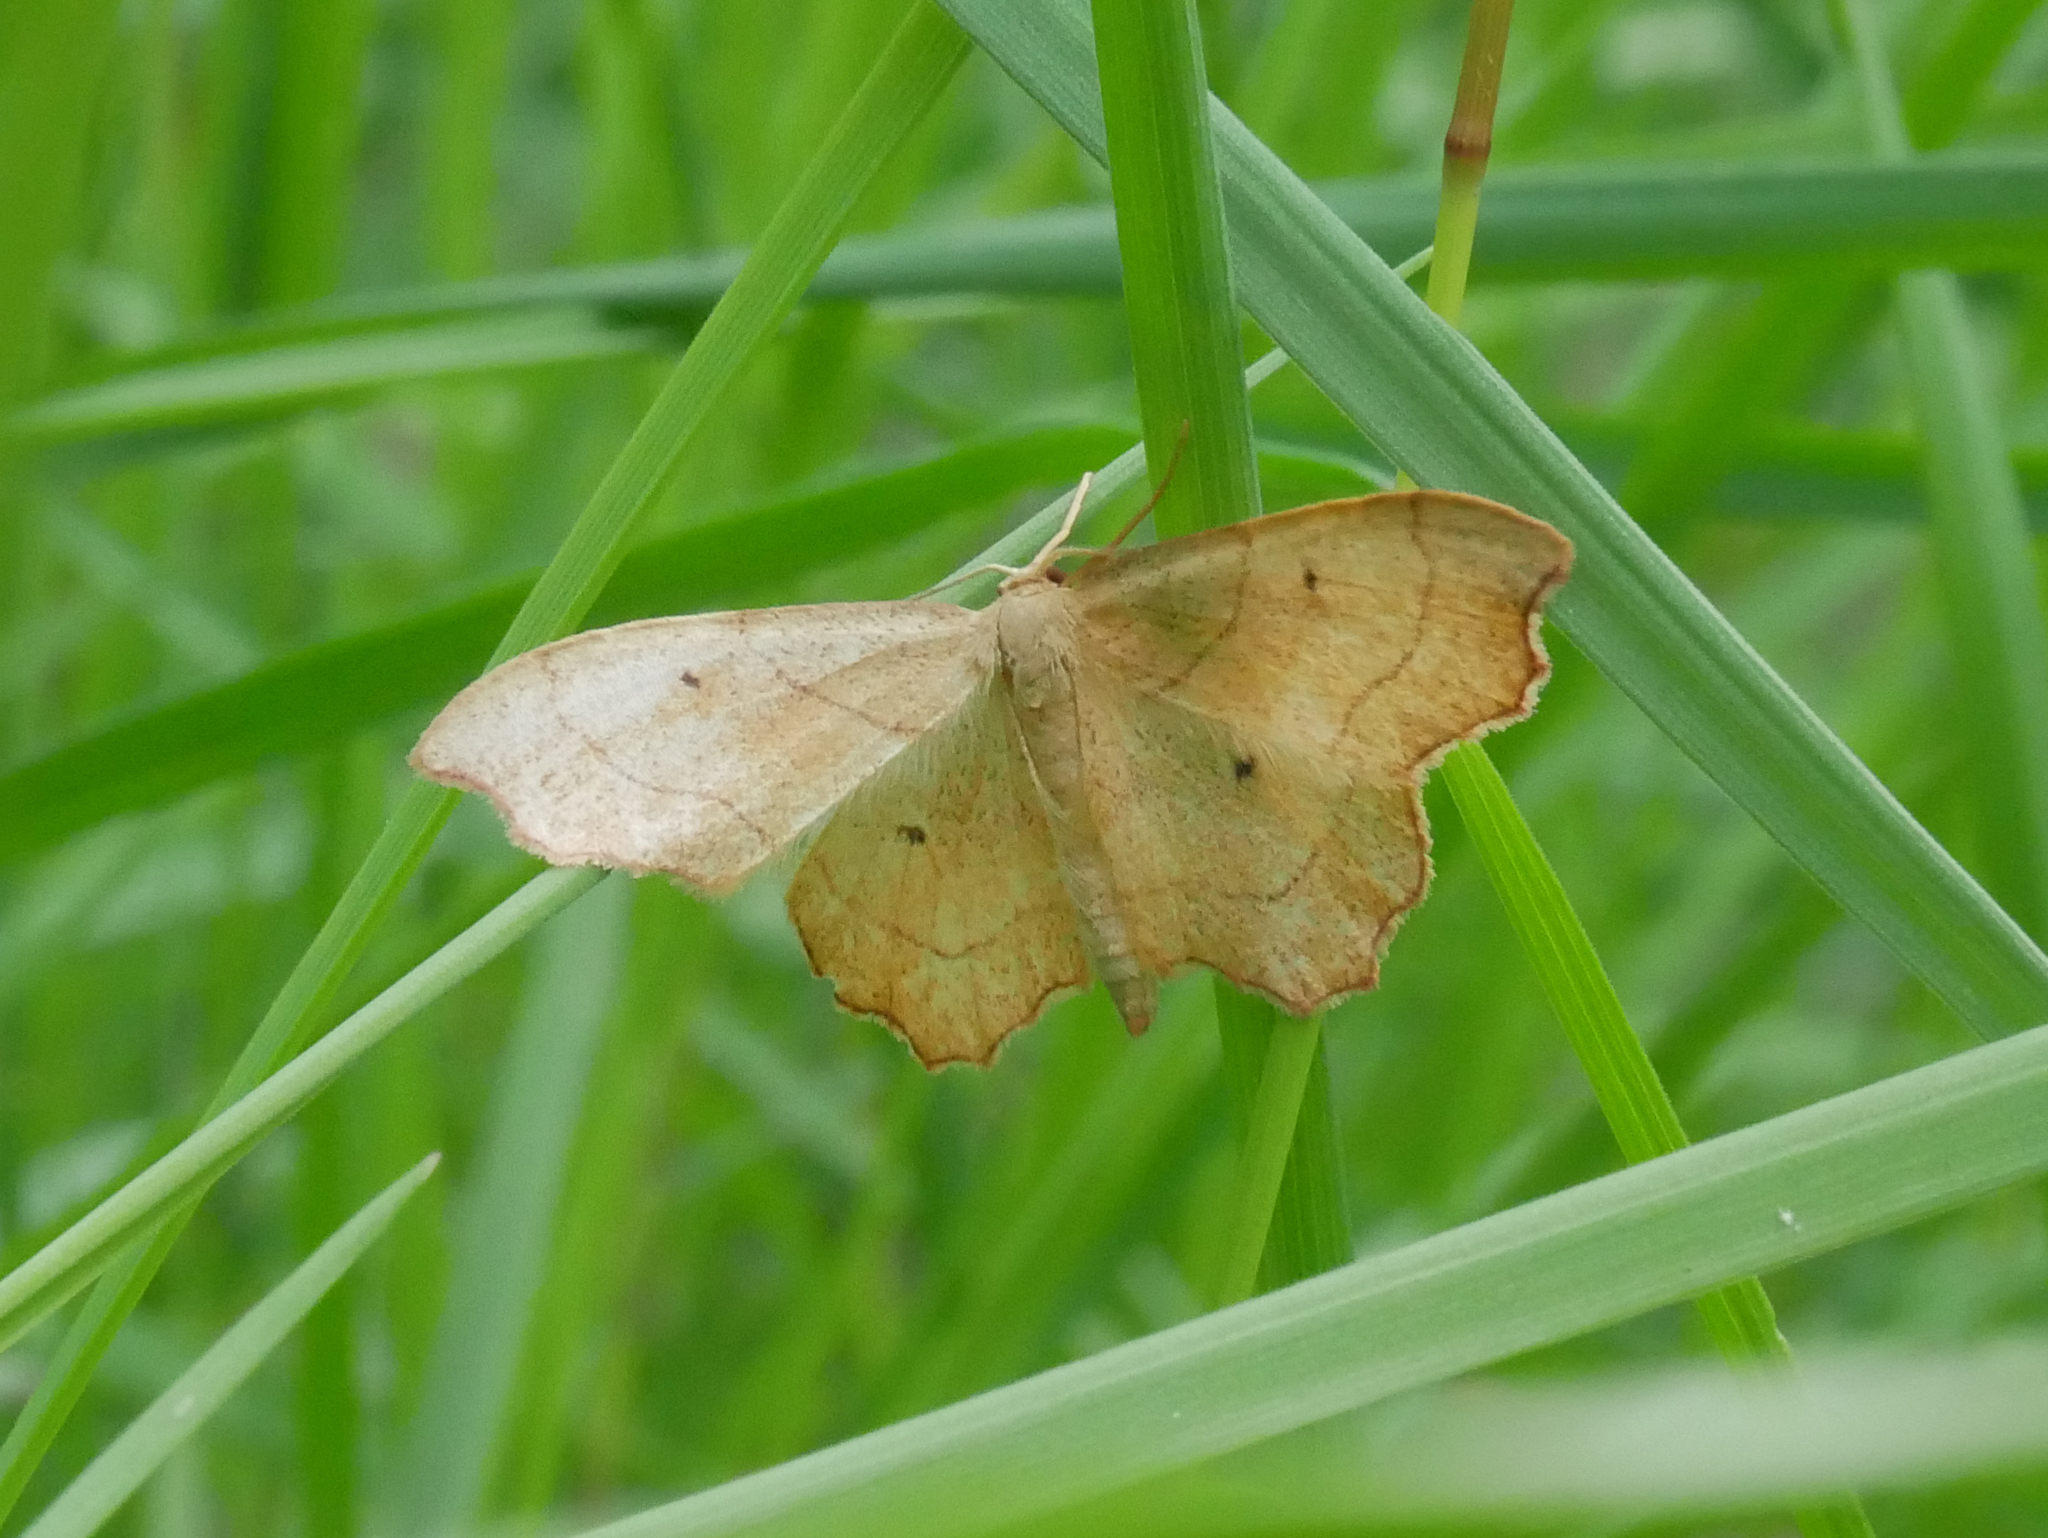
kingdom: Animalia
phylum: Arthropoda
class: Insecta
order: Lepidoptera
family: Geometridae
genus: Idaea
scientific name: Idaea emarginata
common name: Small scallop
